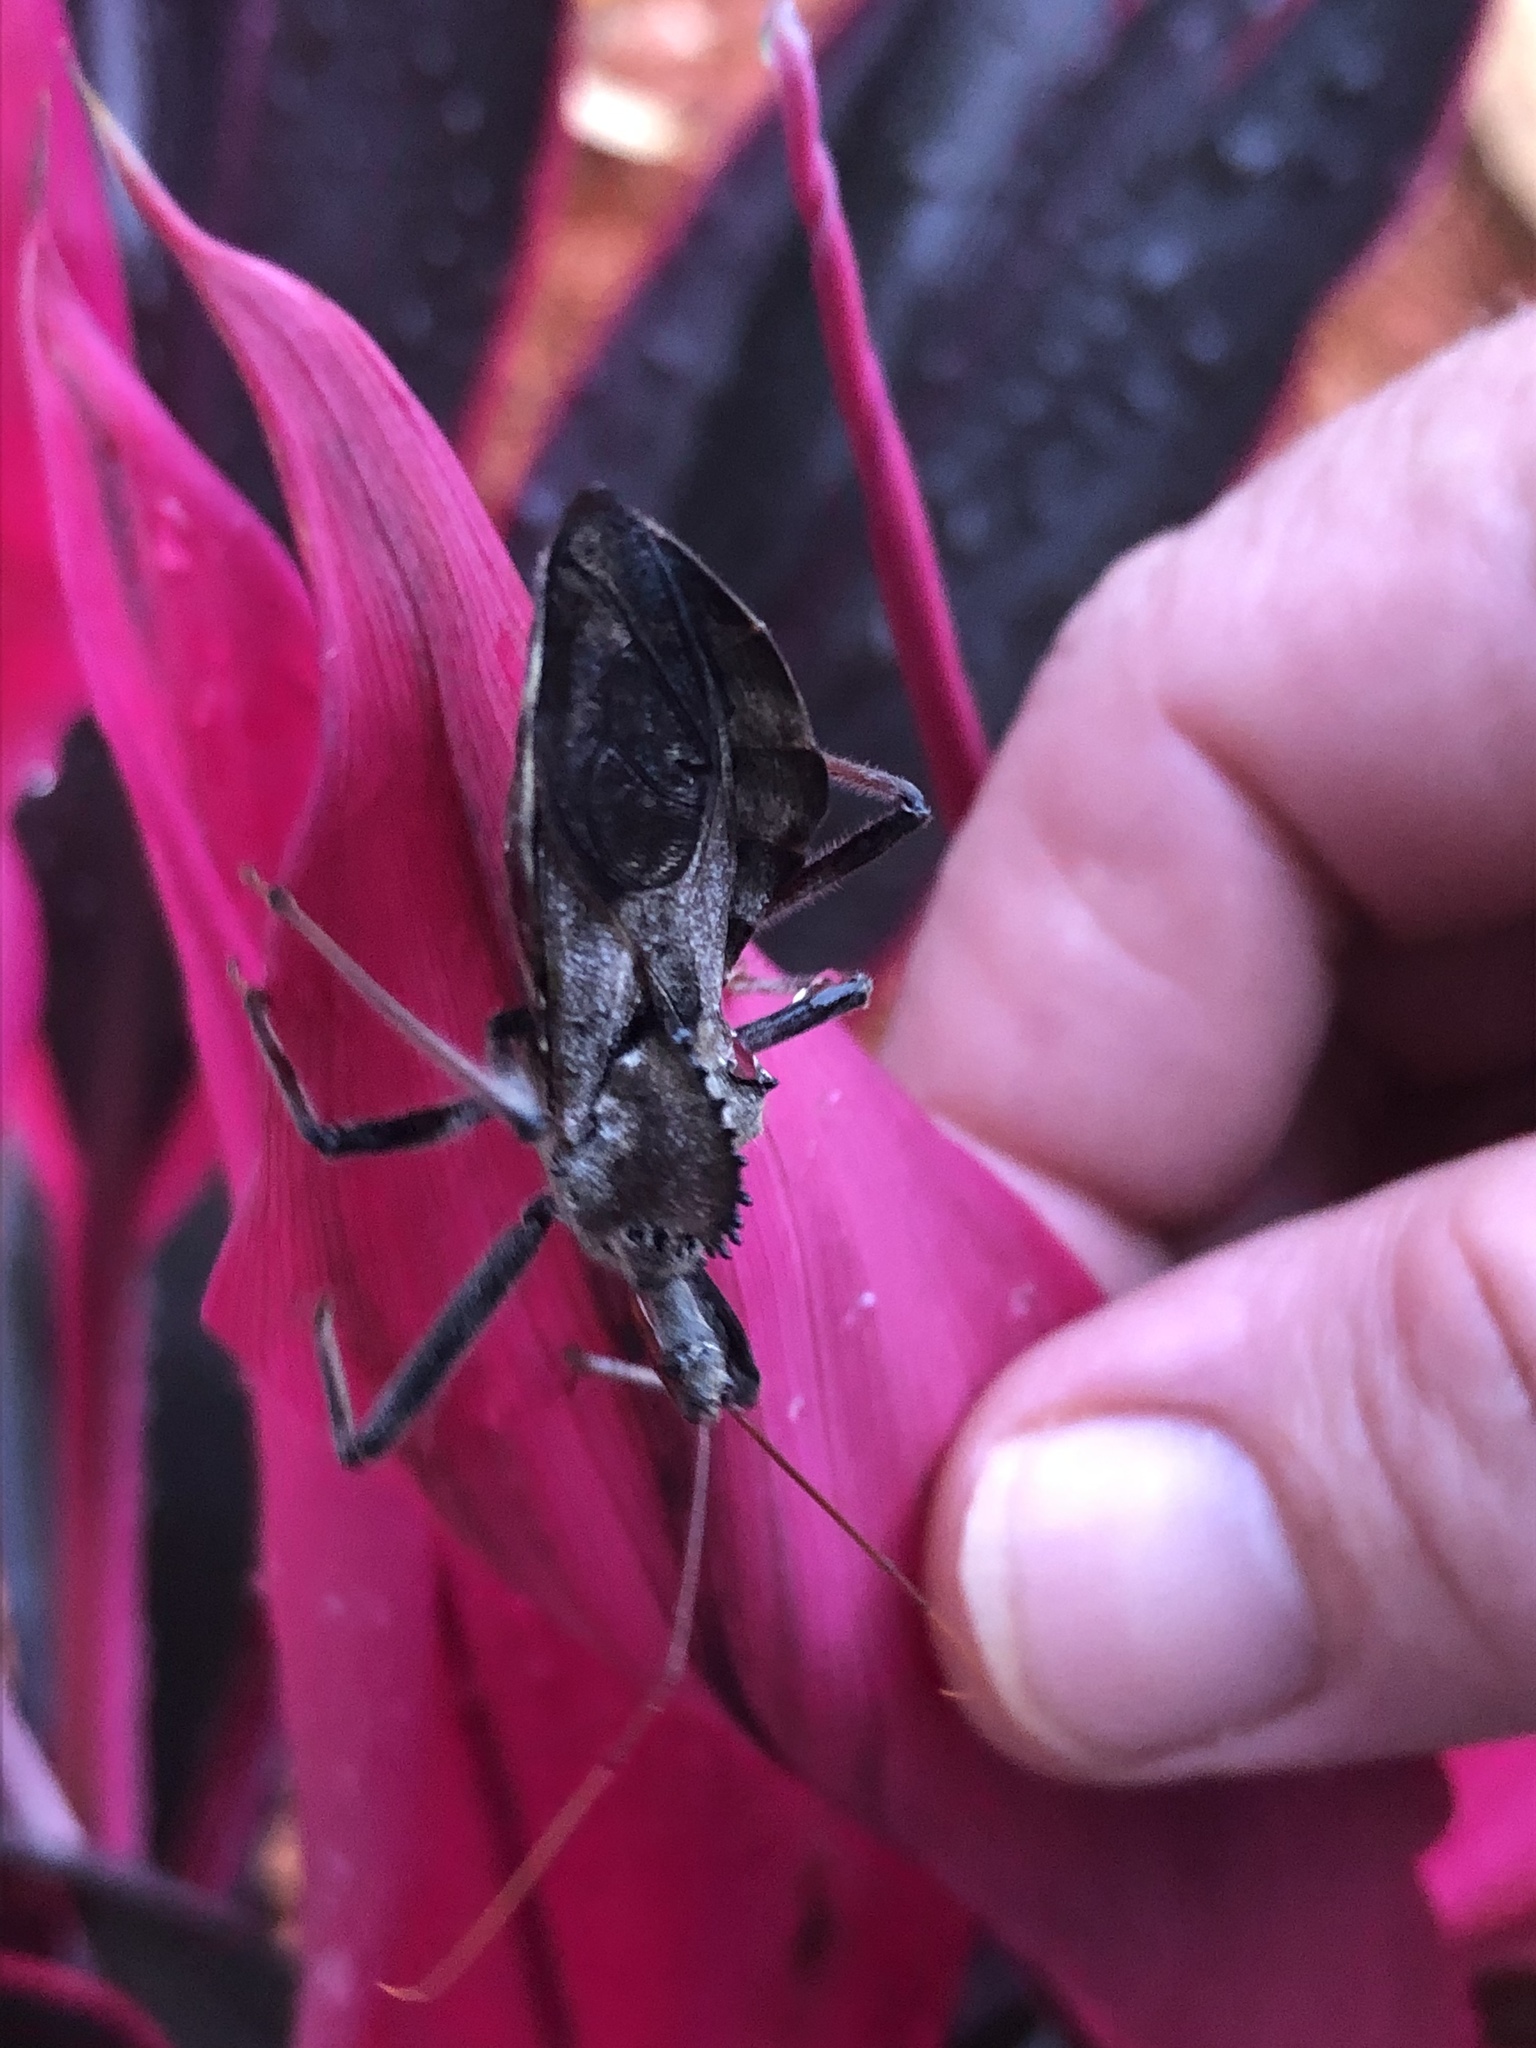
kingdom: Animalia
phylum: Arthropoda
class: Insecta
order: Hemiptera
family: Reduviidae
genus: Arilus
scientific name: Arilus cristatus
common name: North american wheel bug
